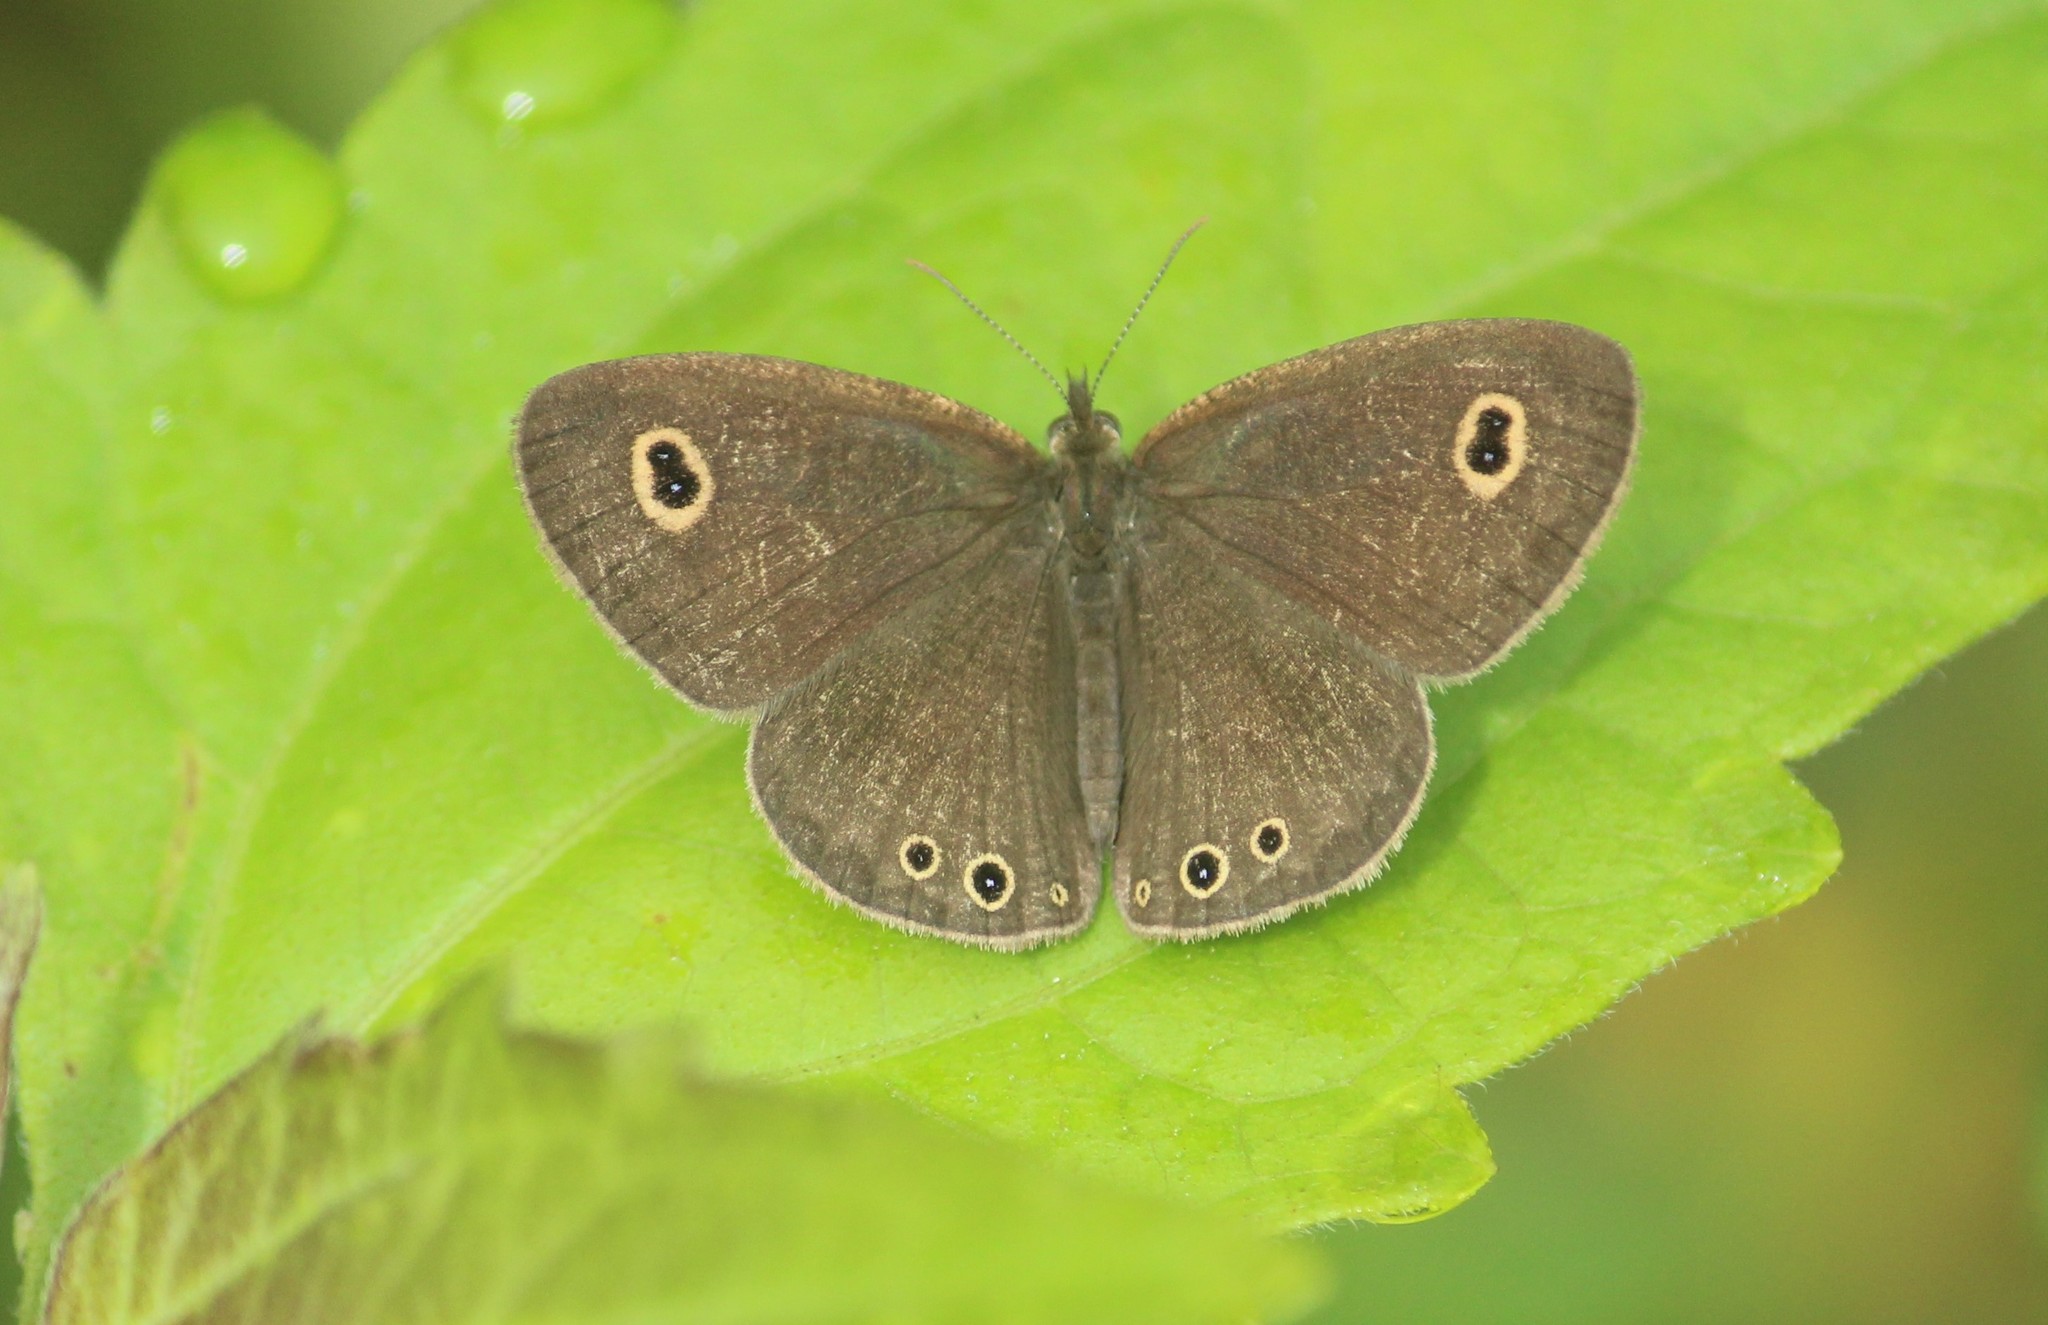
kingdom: Animalia
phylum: Arthropoda
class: Insecta
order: Lepidoptera
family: Nymphalidae
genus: Ypthima
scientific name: Ypthima huebneri
